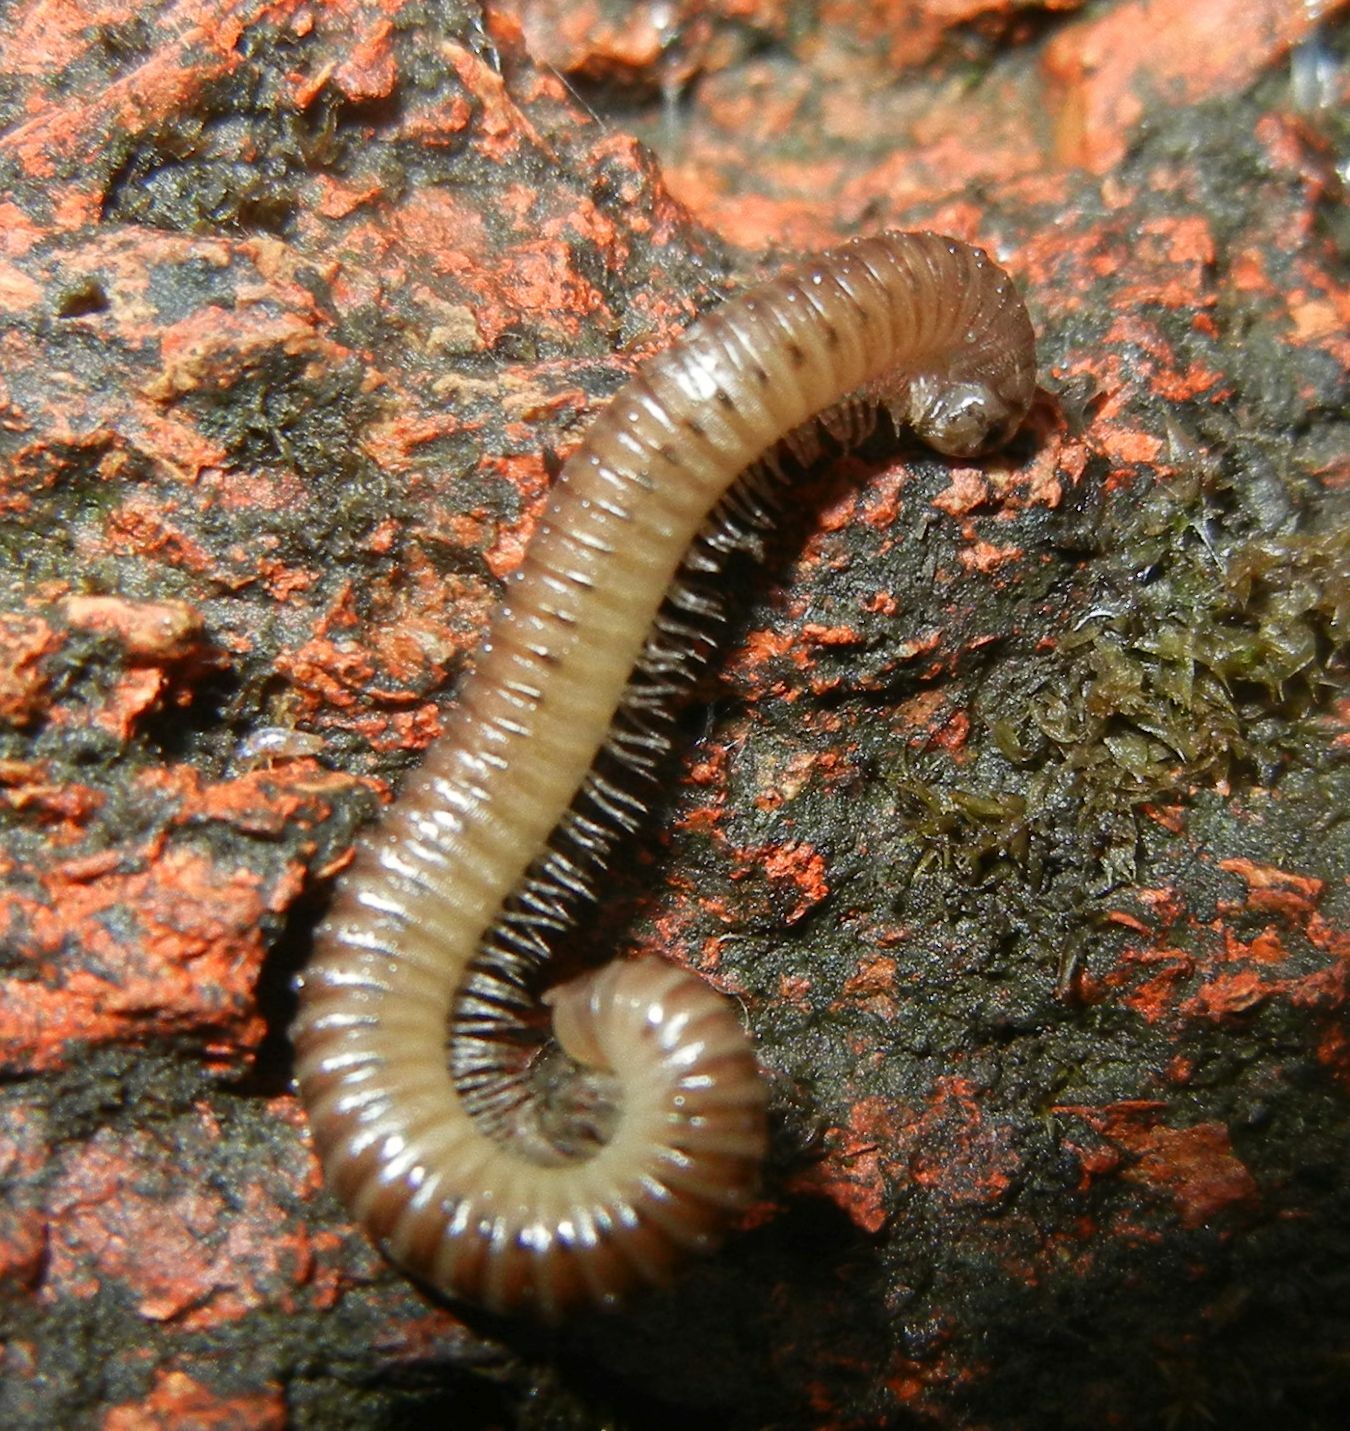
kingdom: Animalia
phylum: Arthropoda
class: Diplopoda
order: Julida
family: Julidae
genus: Cylindroiulus
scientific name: Cylindroiulus punctatus
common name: Blunt-tailed millipede
